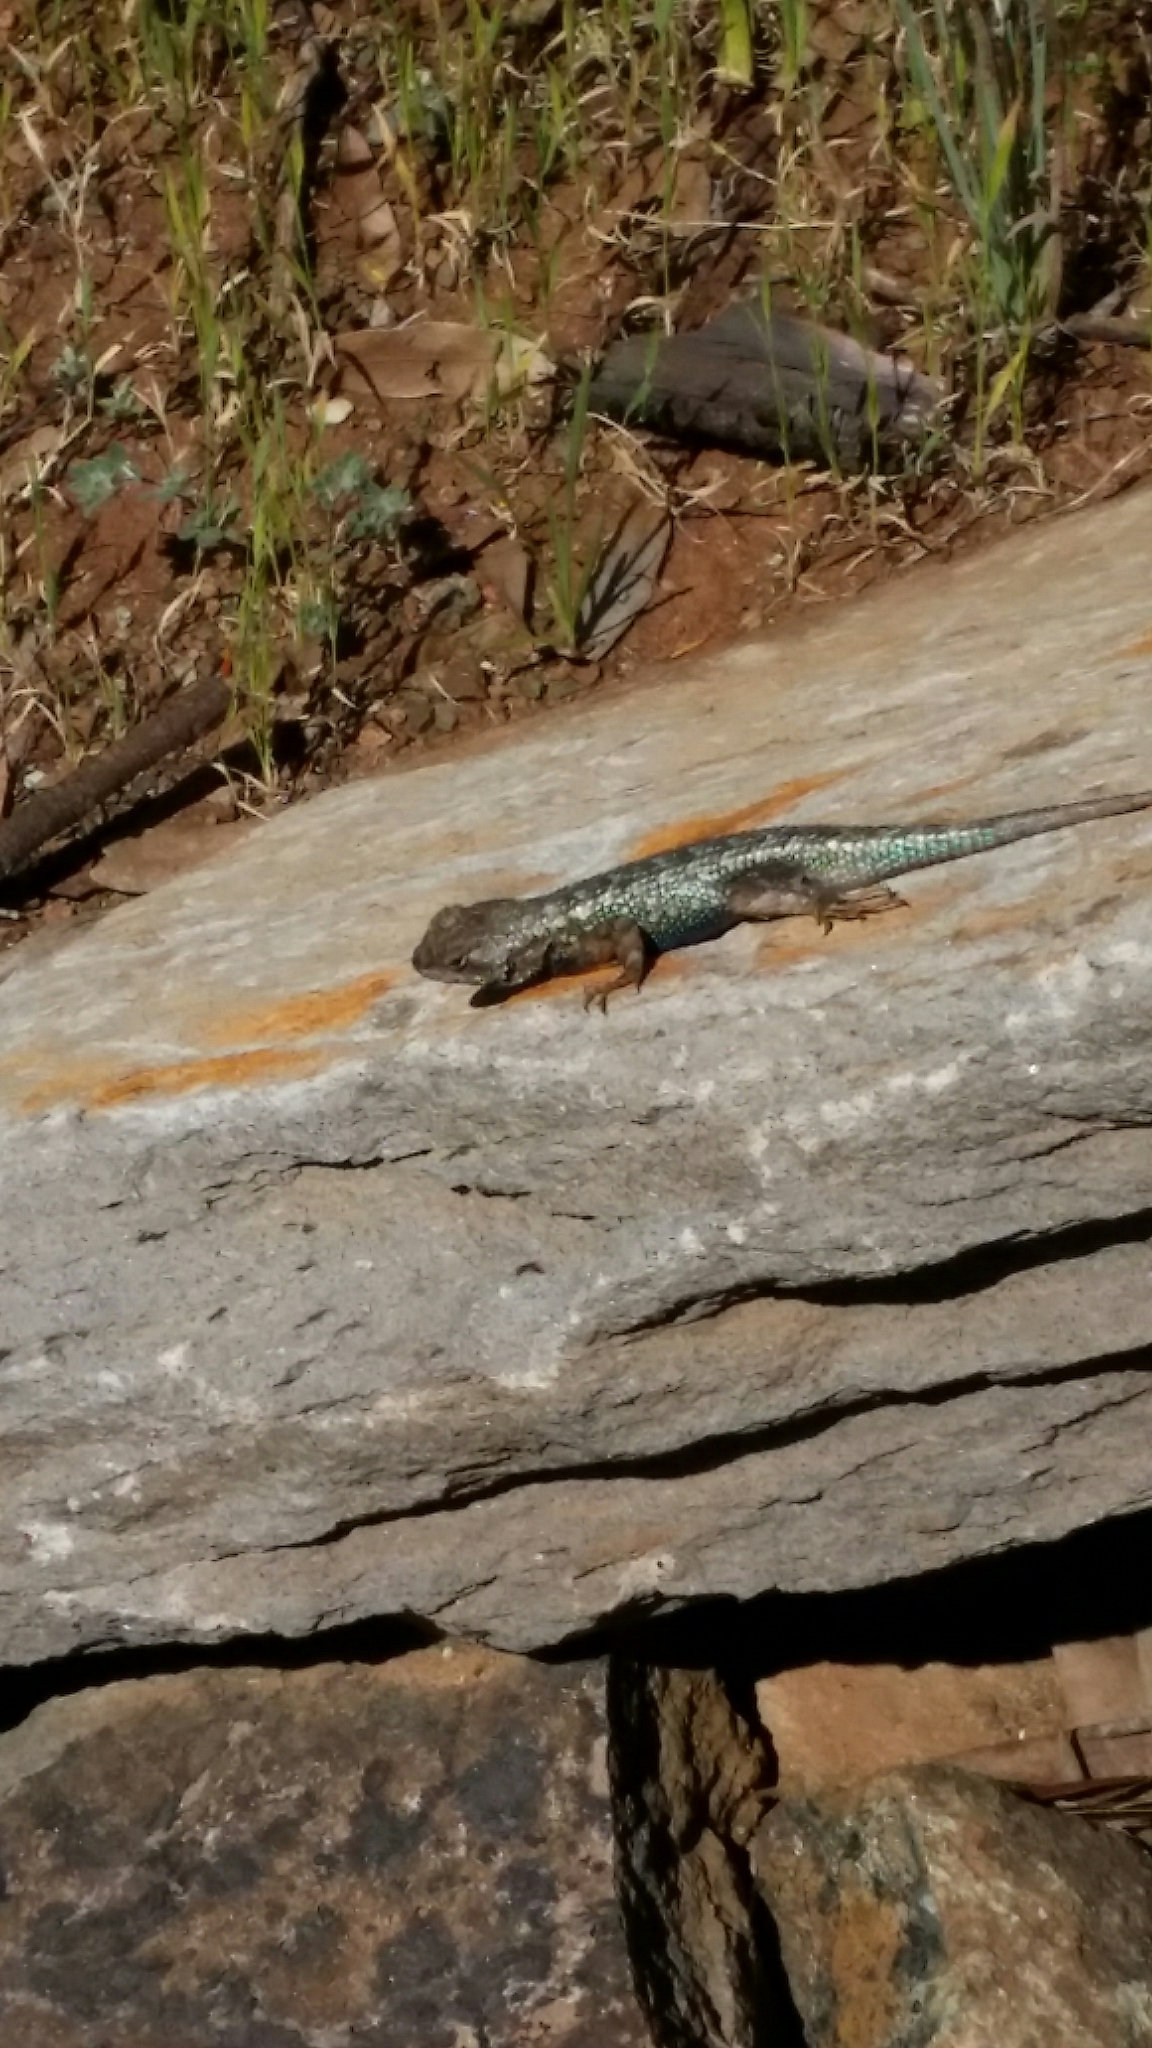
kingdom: Animalia
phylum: Chordata
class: Squamata
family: Phrynosomatidae
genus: Sceloporus
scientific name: Sceloporus occidentalis
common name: Western fence lizard
